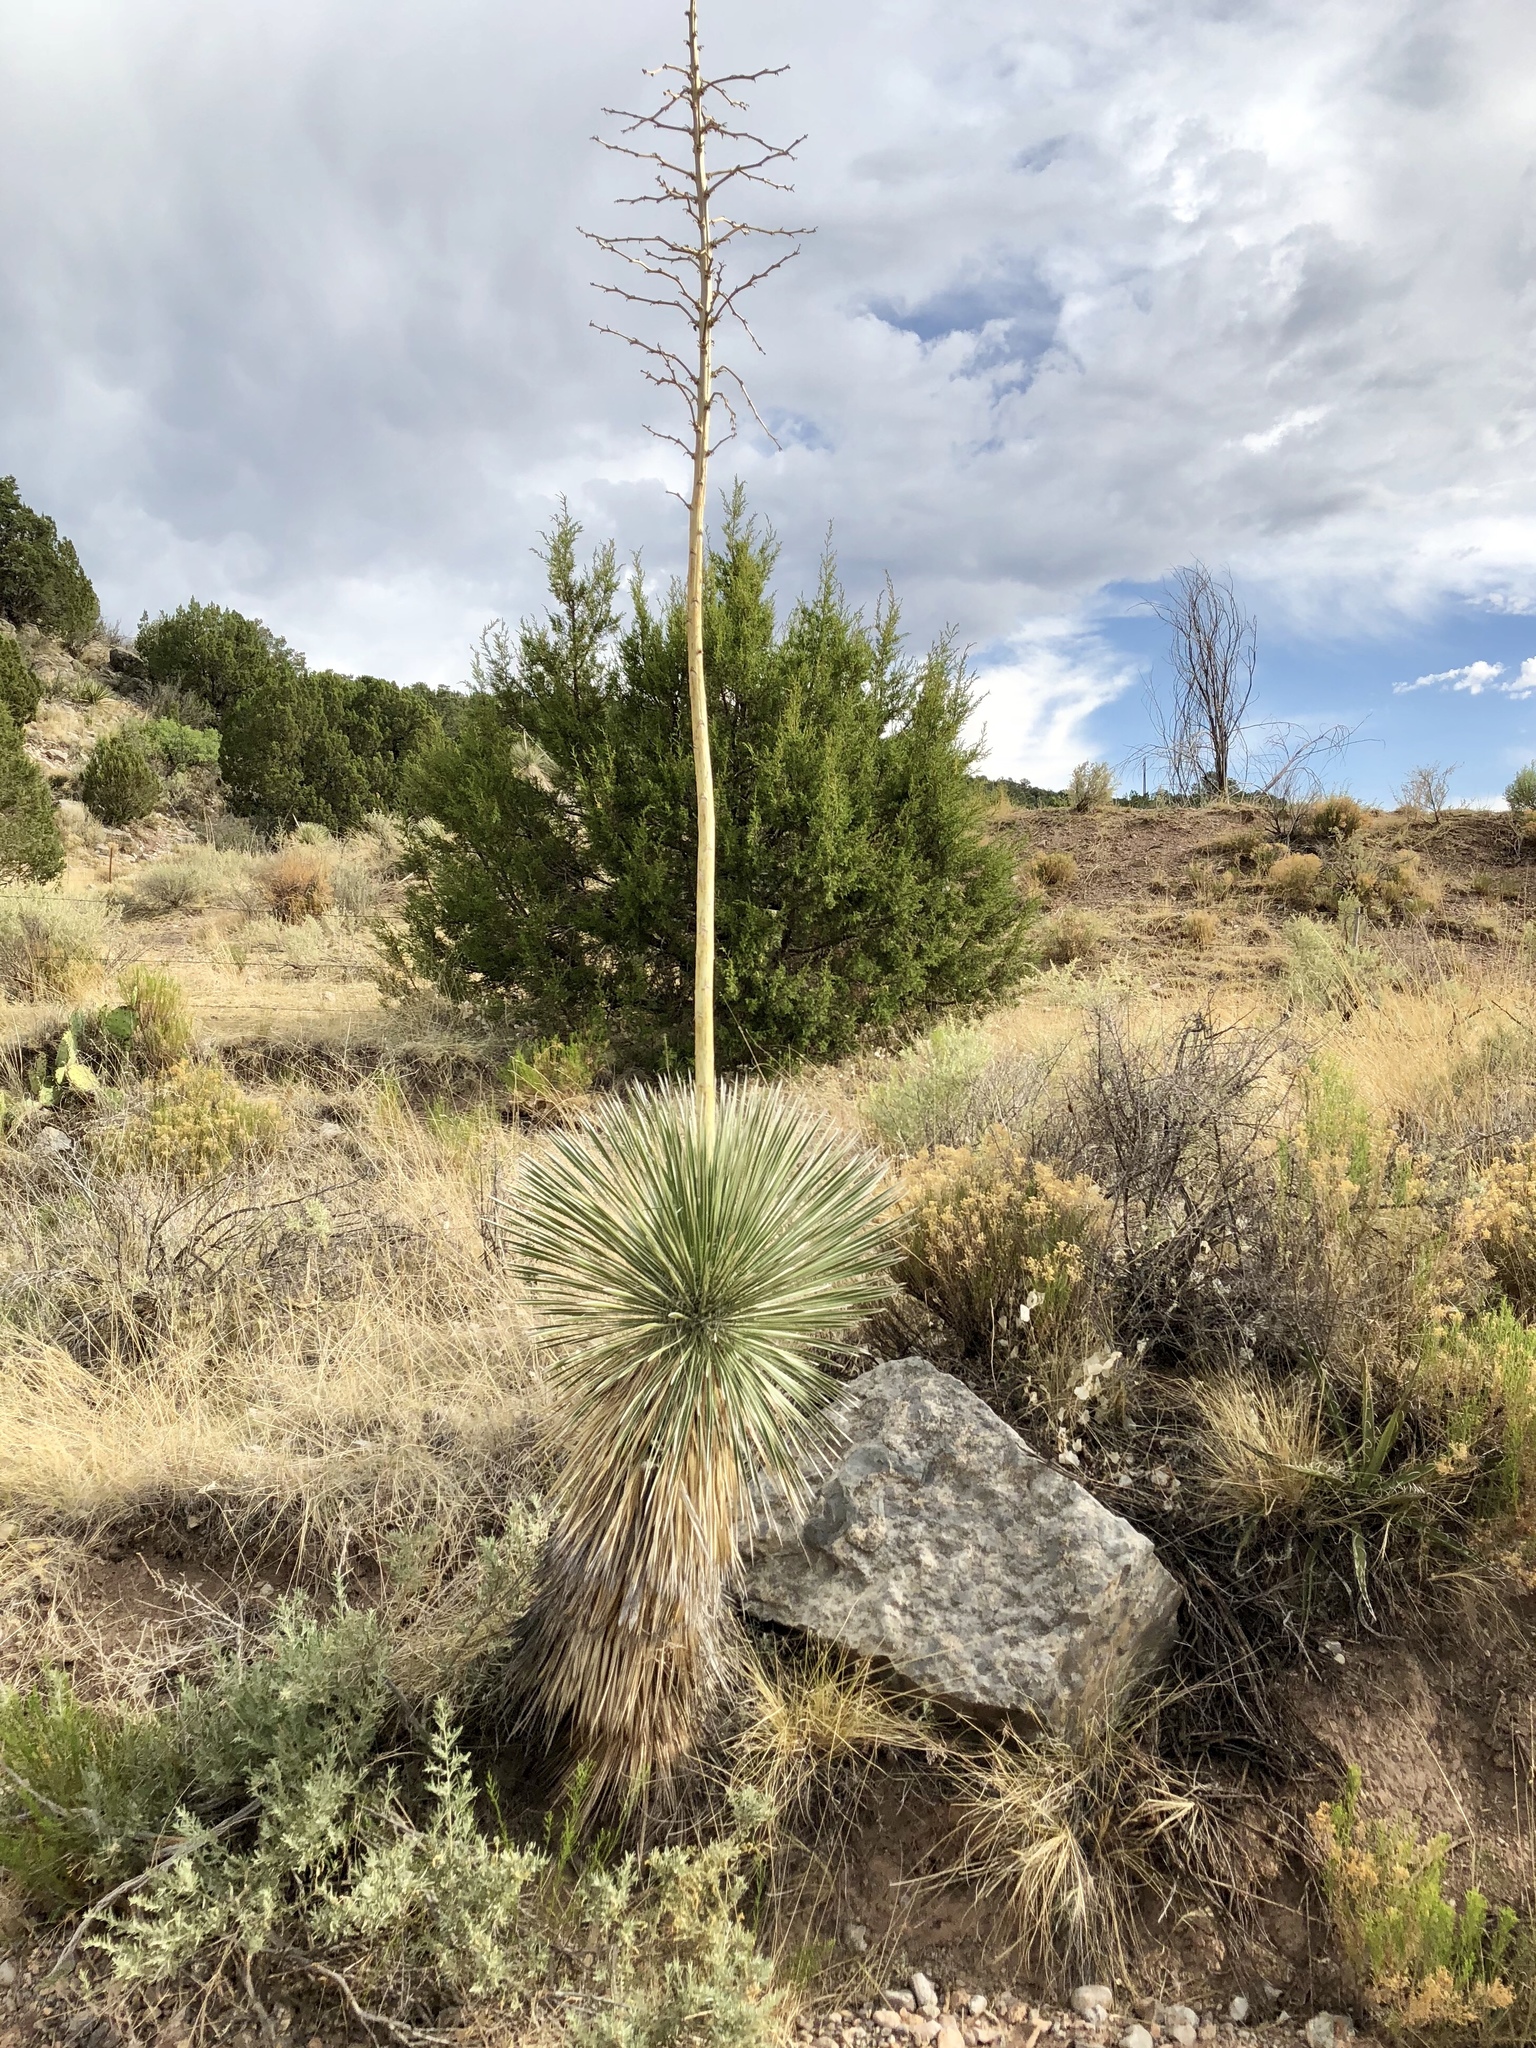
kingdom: Plantae
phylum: Tracheophyta
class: Liliopsida
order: Asparagales
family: Asparagaceae
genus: Yucca
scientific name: Yucca elata
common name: Palmella
